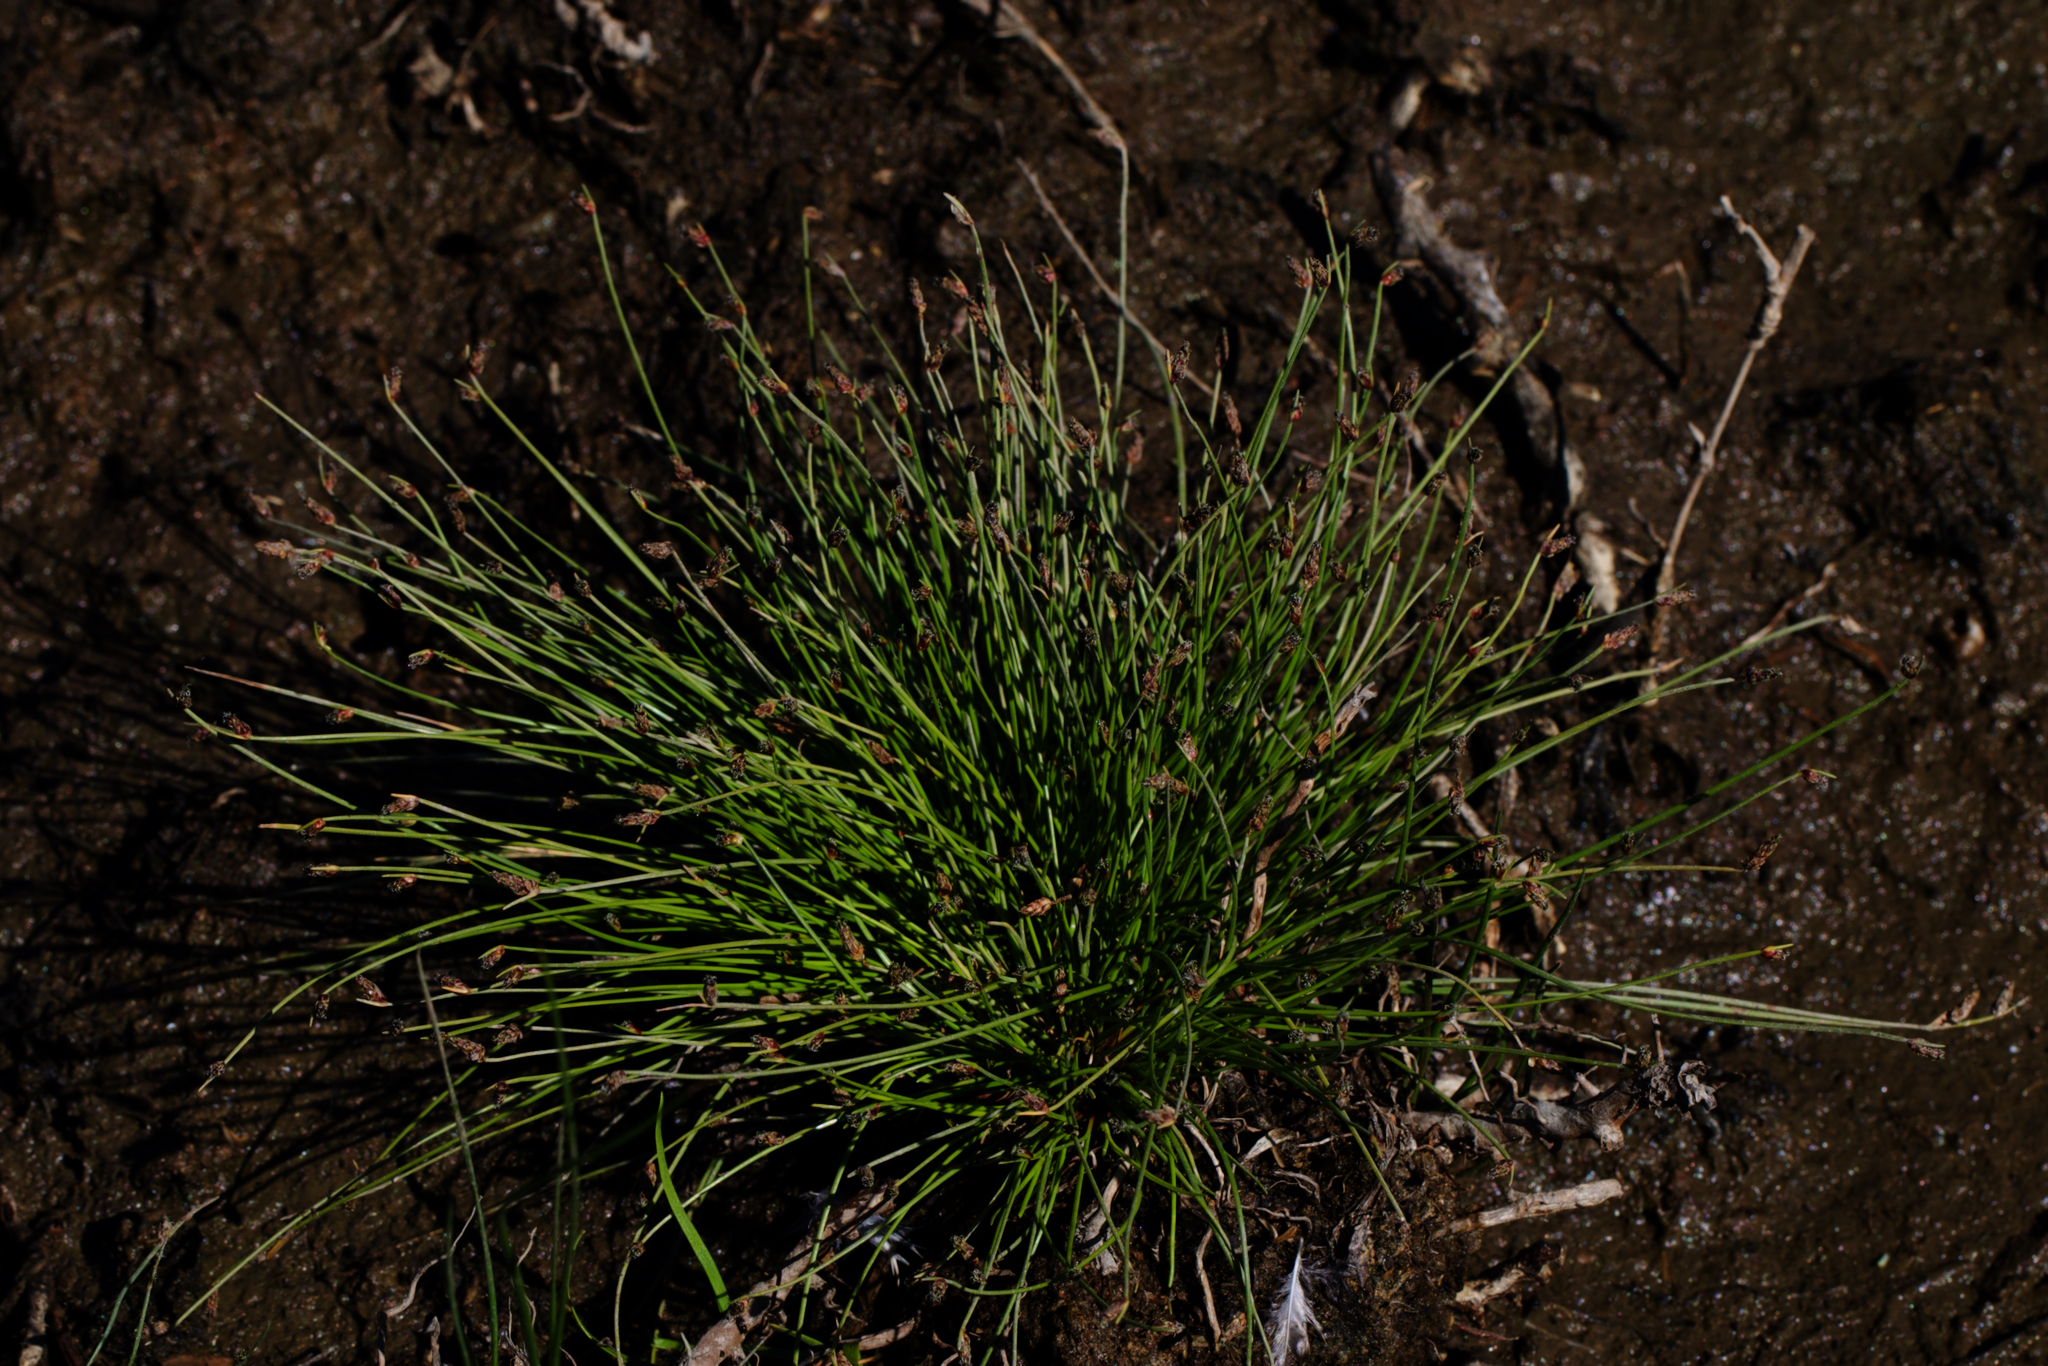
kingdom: Plantae
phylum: Tracheophyta
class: Liliopsida
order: Poales
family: Cyperaceae
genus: Isolepis
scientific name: Isolepis cernua
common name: Slender club-rush
